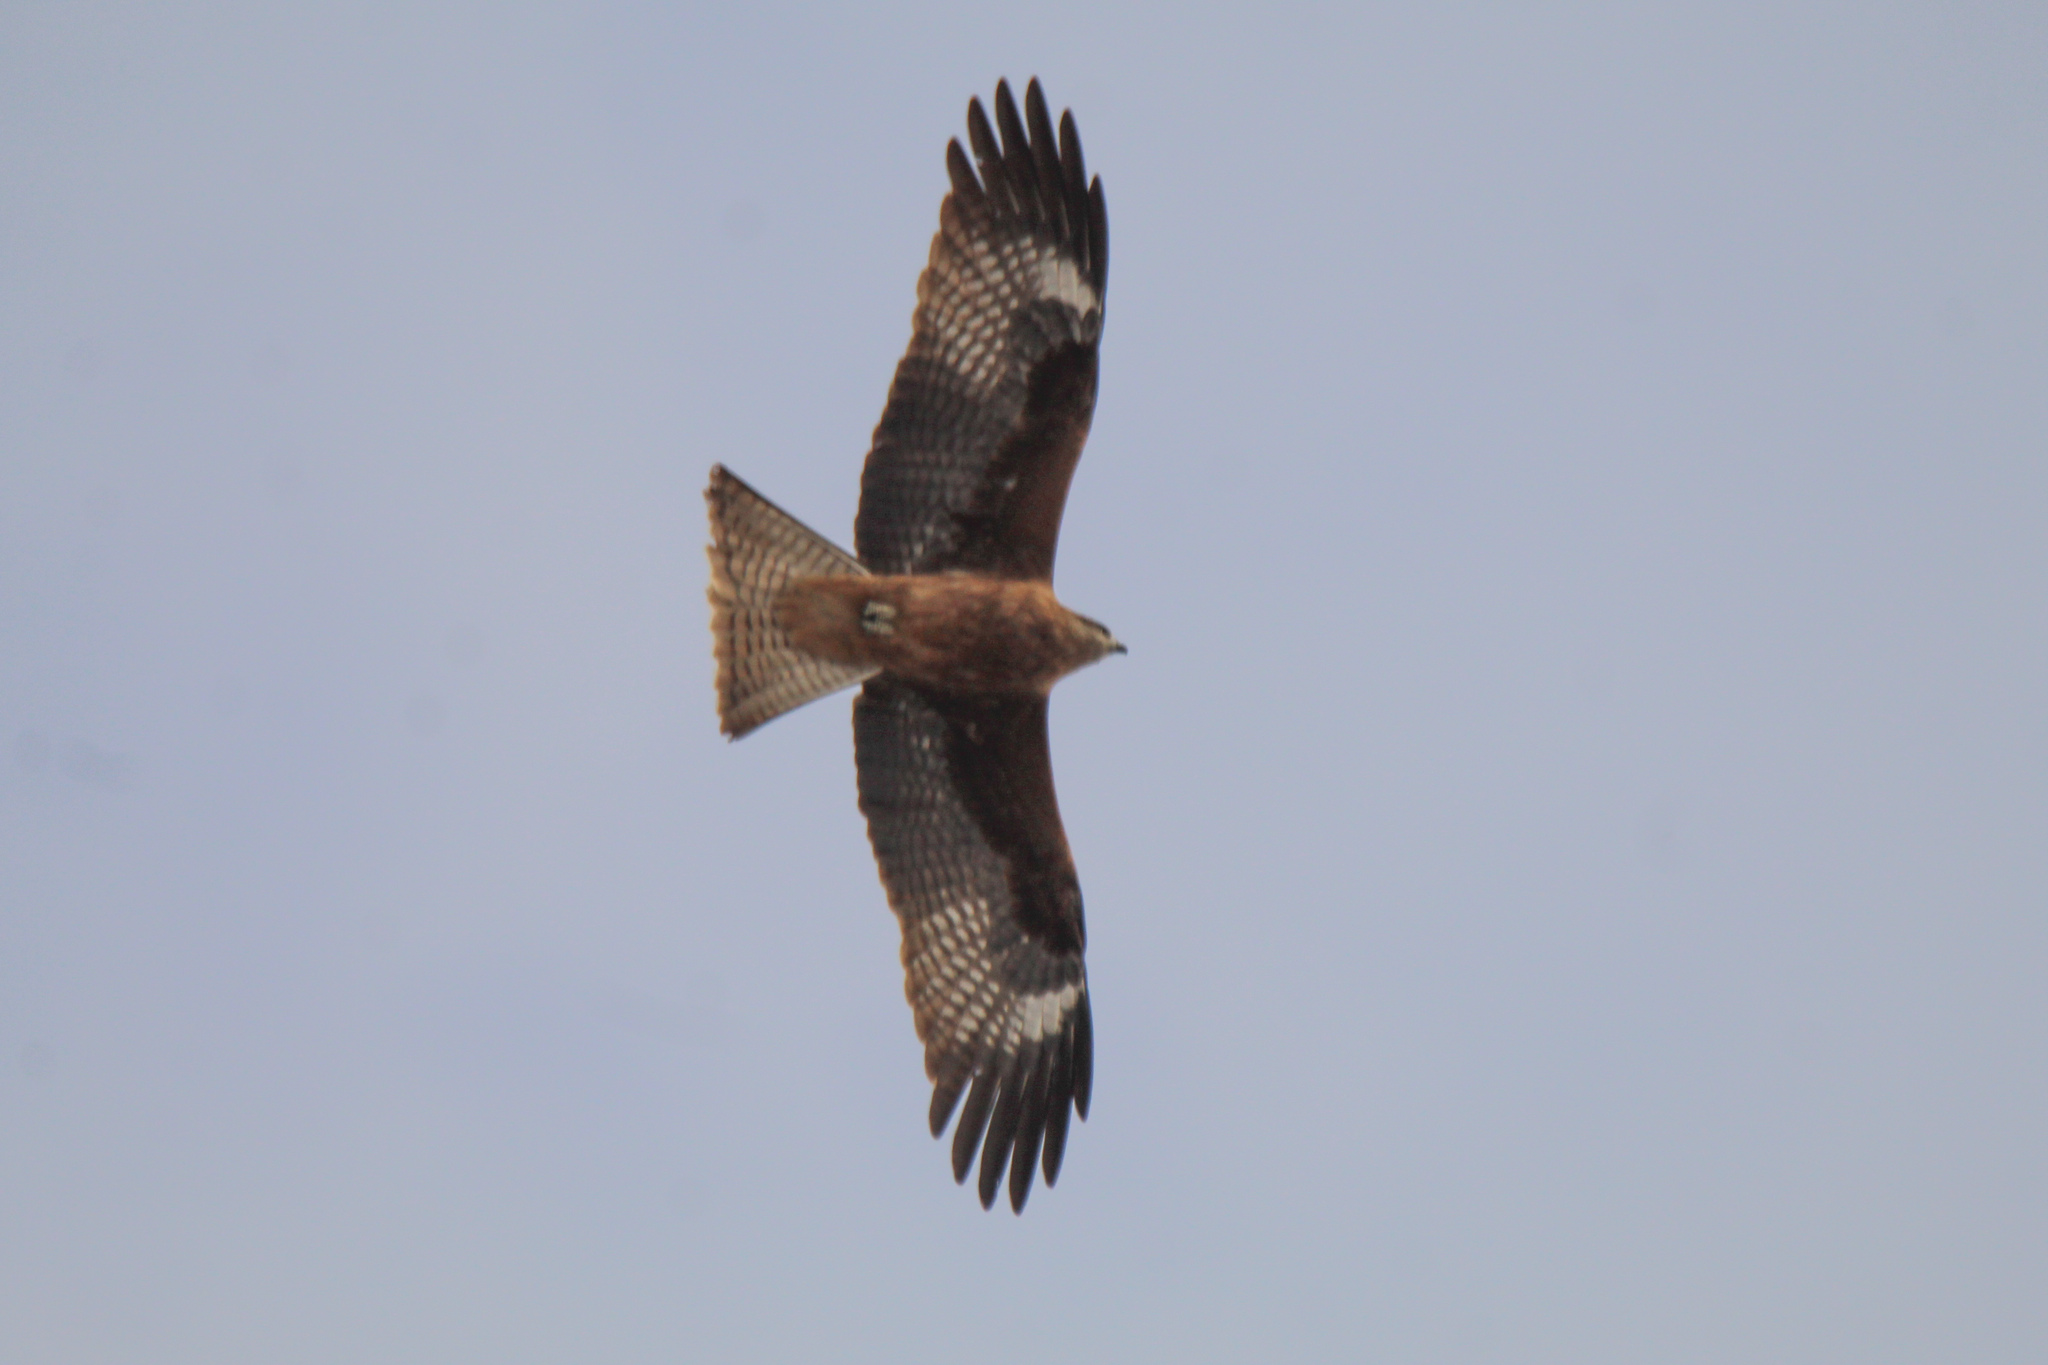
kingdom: Animalia
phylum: Chordata
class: Aves
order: Accipitriformes
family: Accipitridae
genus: Milvus
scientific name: Milvus migrans
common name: Black kite
